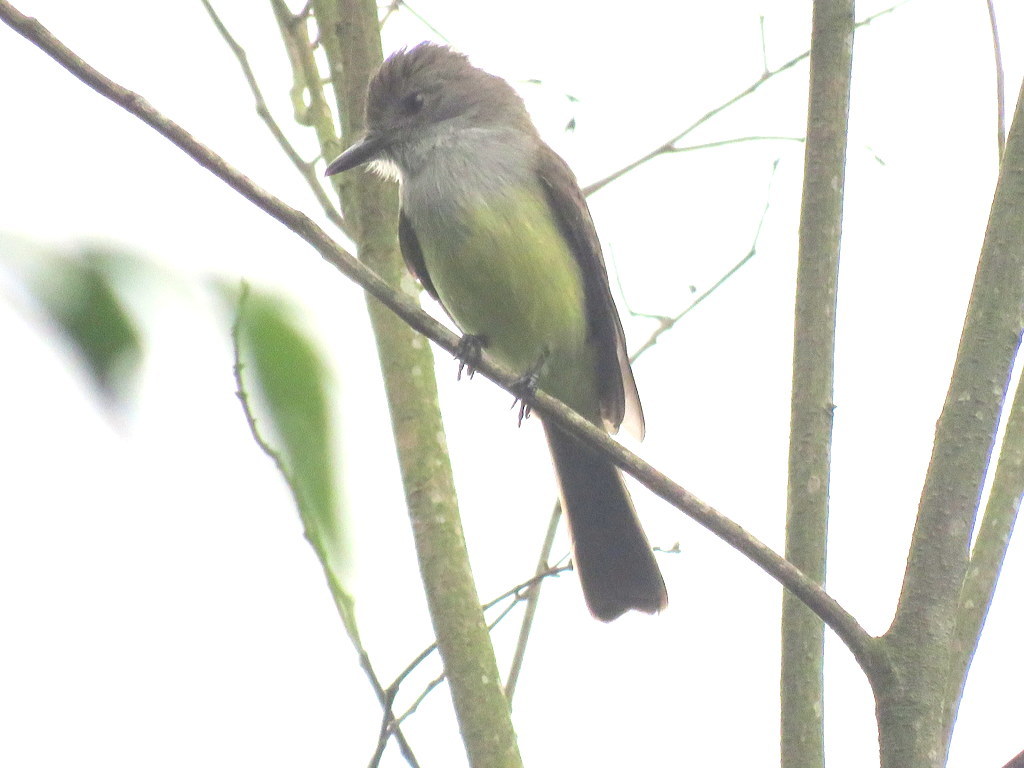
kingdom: Animalia
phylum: Chordata
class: Aves
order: Passeriformes
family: Tyrannidae
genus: Myiarchus
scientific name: Myiarchus ferox
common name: Short-crested flycatcher
